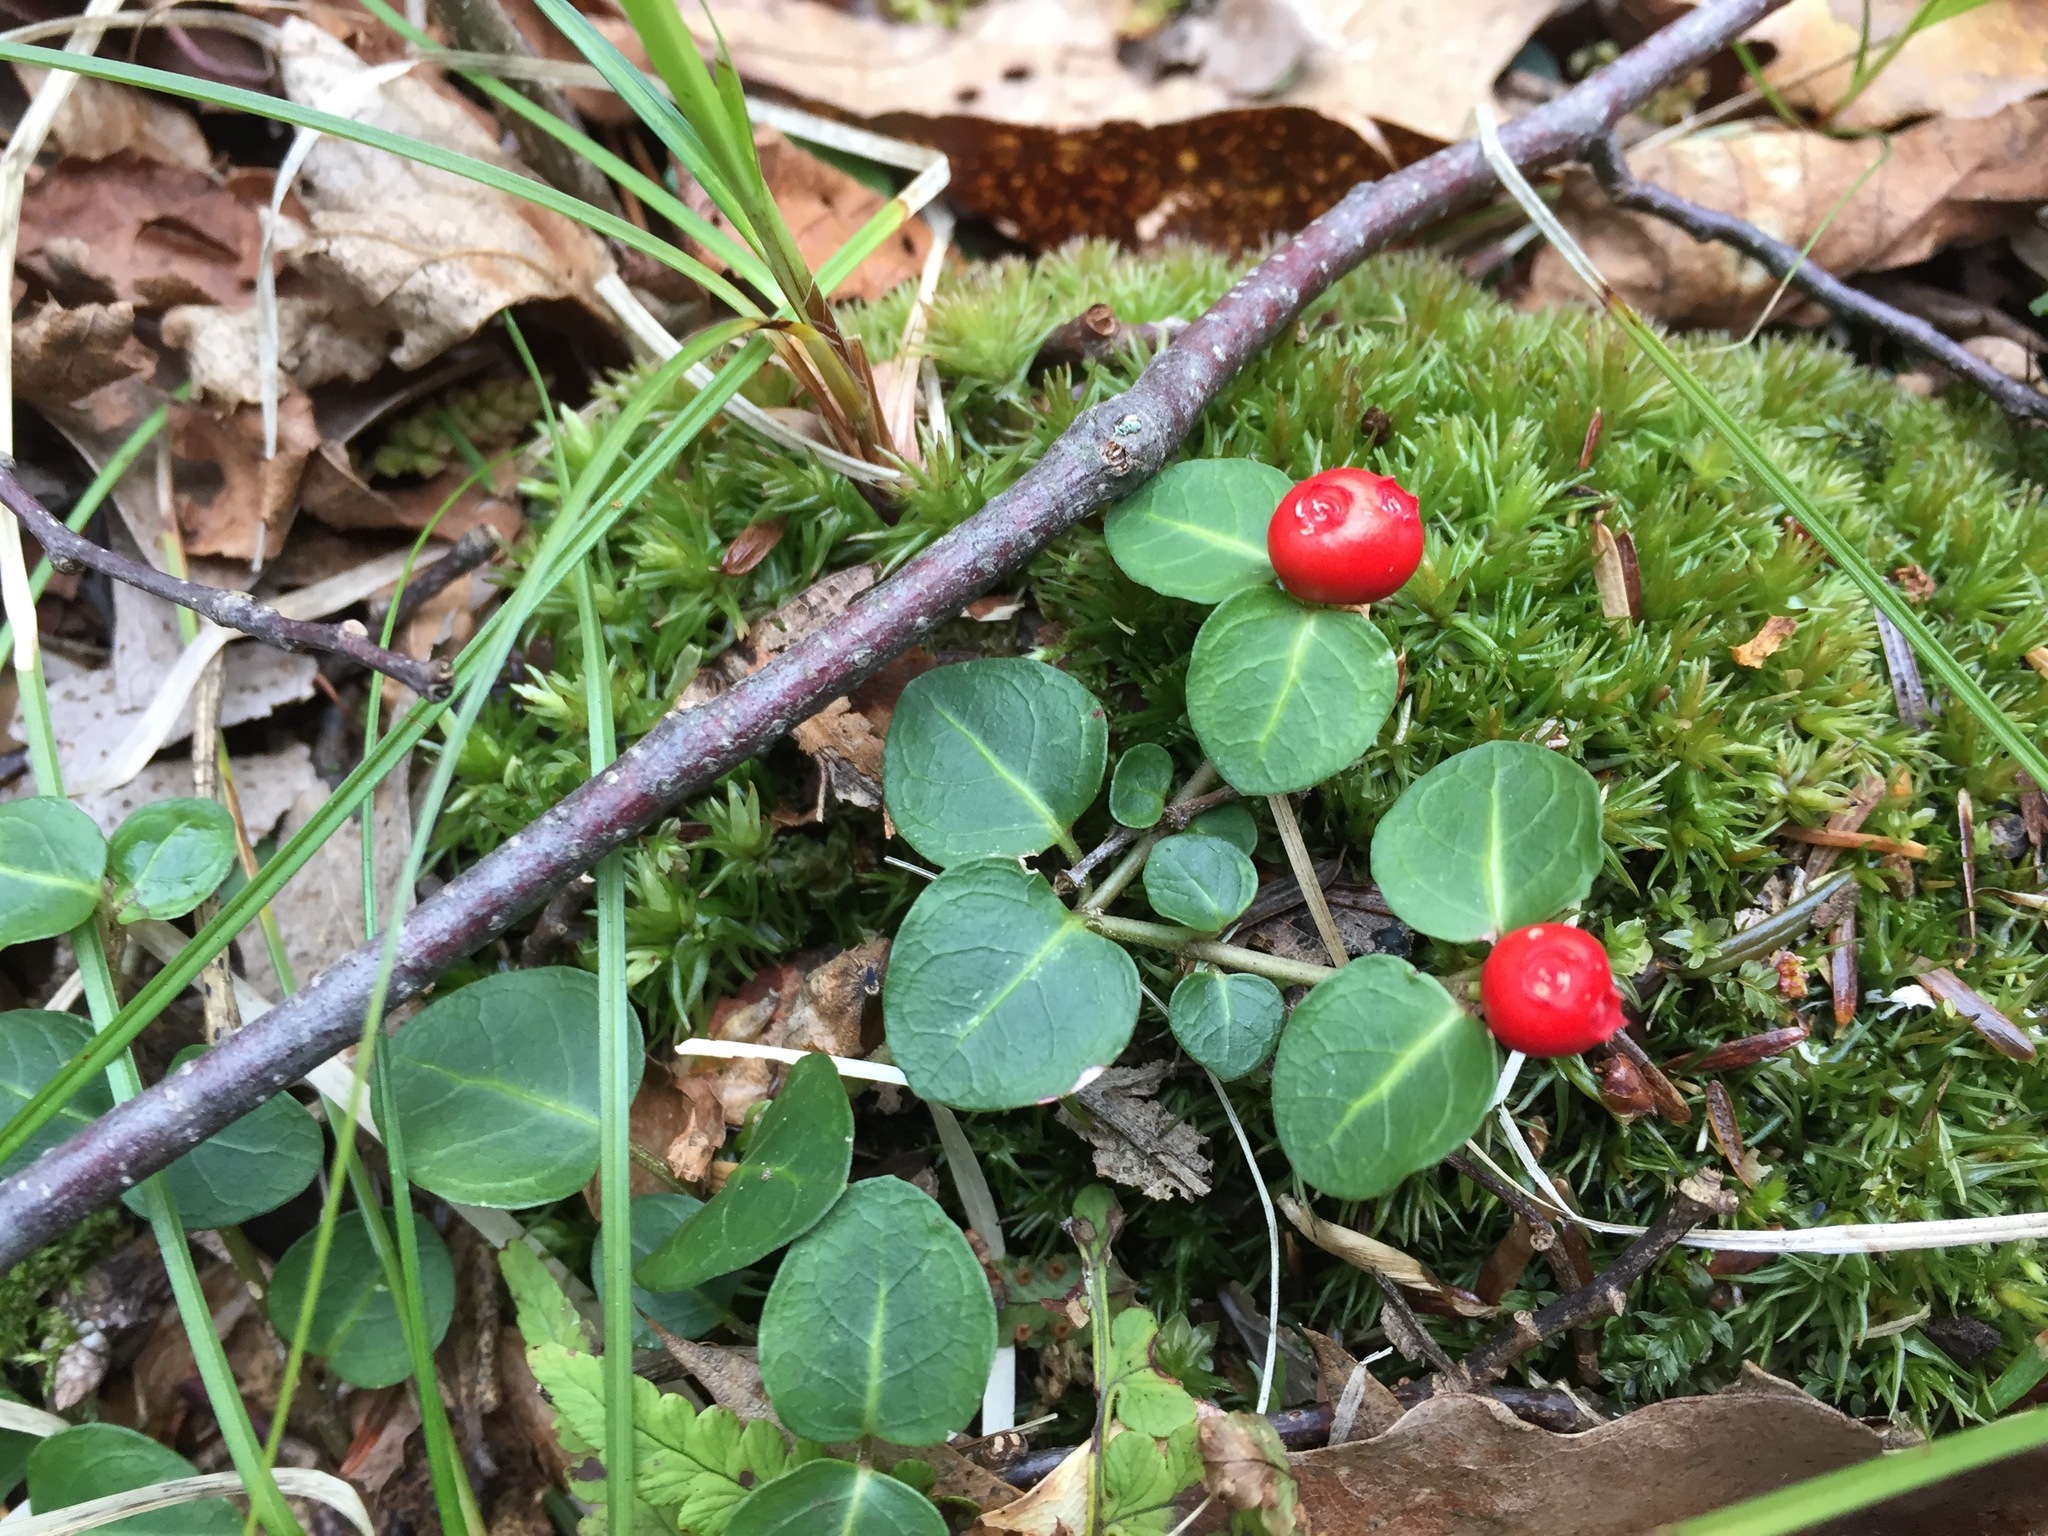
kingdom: Plantae
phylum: Tracheophyta
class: Magnoliopsida
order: Gentianales
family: Rubiaceae
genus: Mitchella
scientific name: Mitchella repens
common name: Partridge-berry
